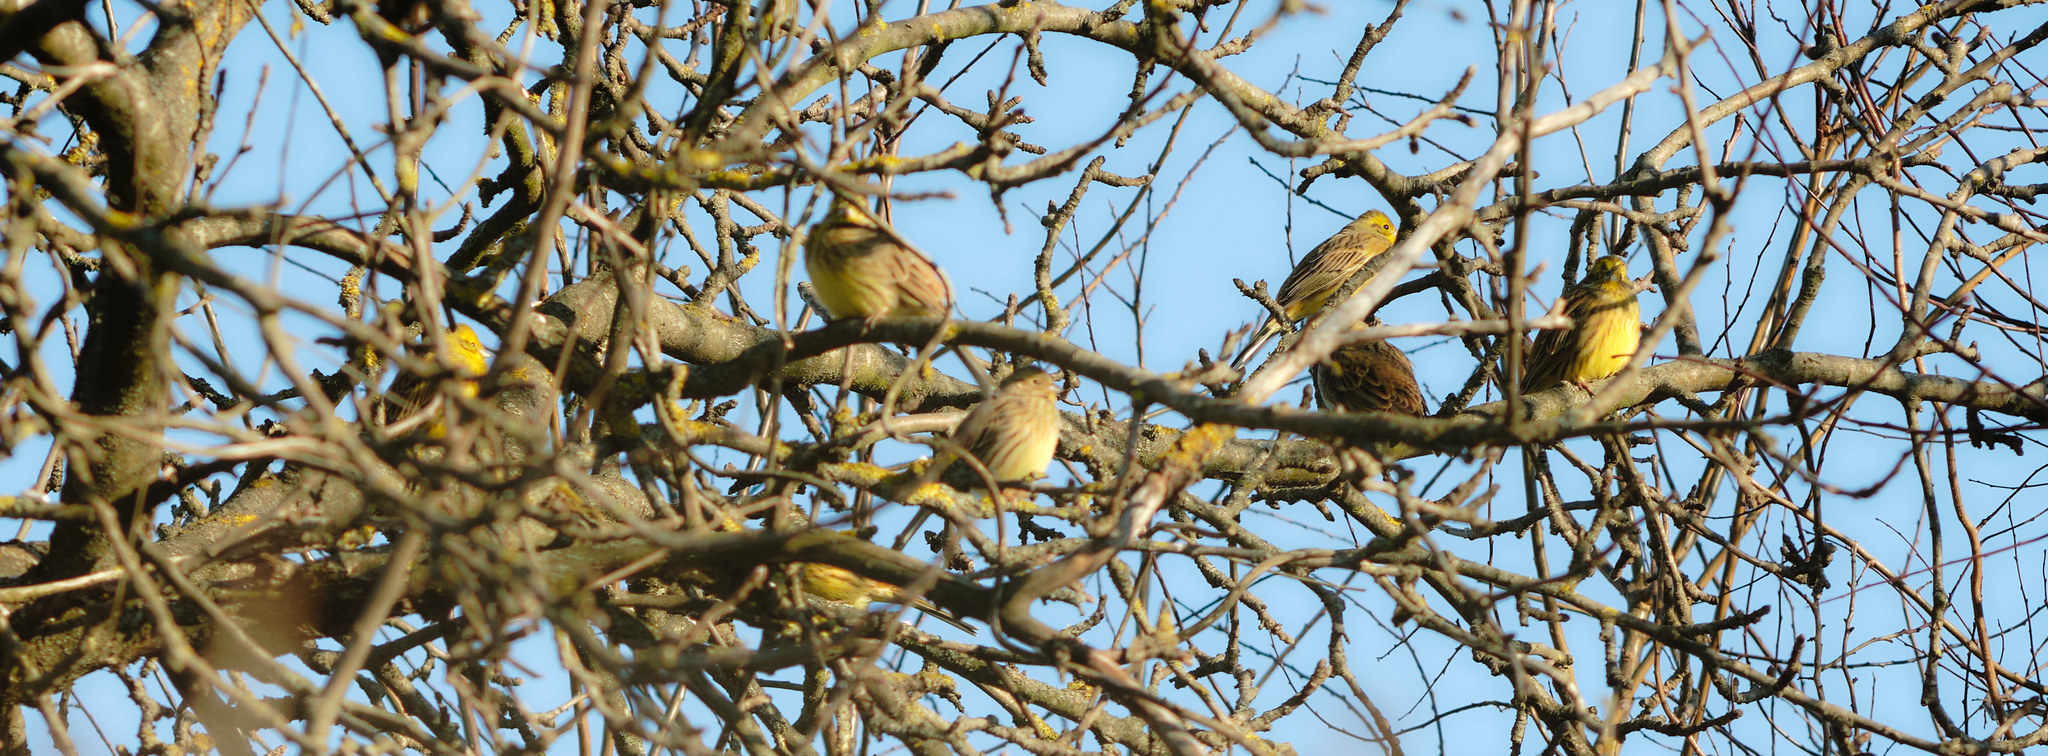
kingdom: Animalia
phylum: Chordata
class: Aves
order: Passeriformes
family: Emberizidae
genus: Emberiza
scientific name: Emberiza citrinella
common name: Yellowhammer
